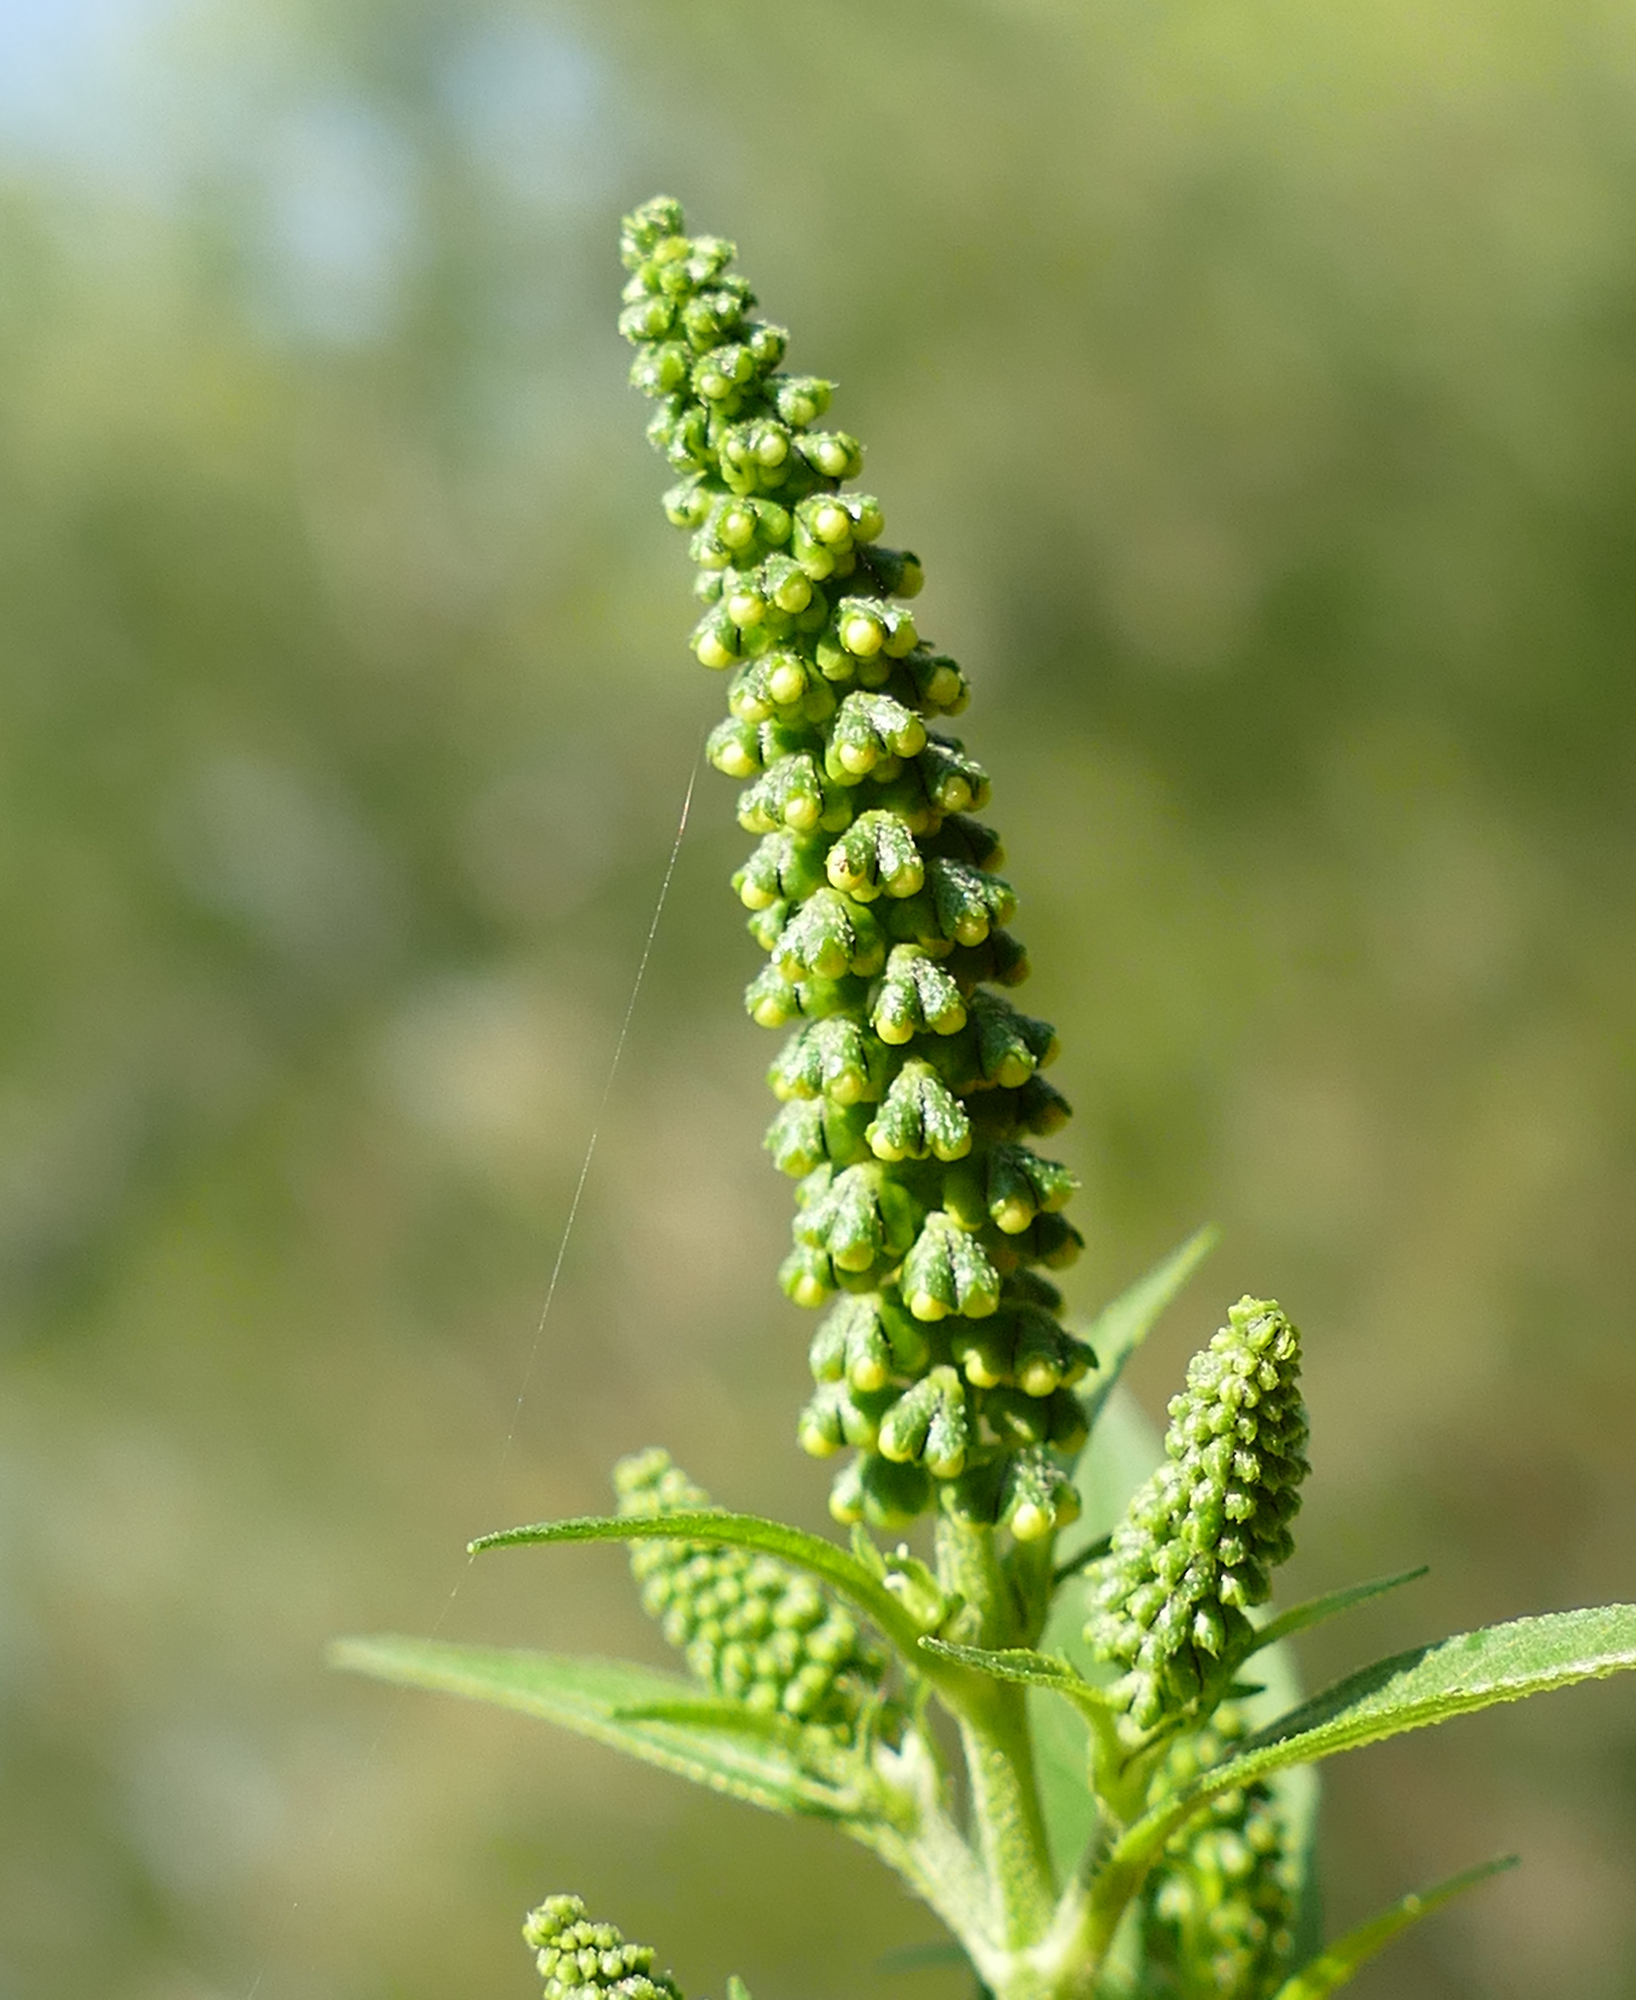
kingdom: Plantae
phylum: Tracheophyta
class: Magnoliopsida
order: Asterales
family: Asteraceae
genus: Ambrosia
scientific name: Ambrosia trifida
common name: Giant ragweed
